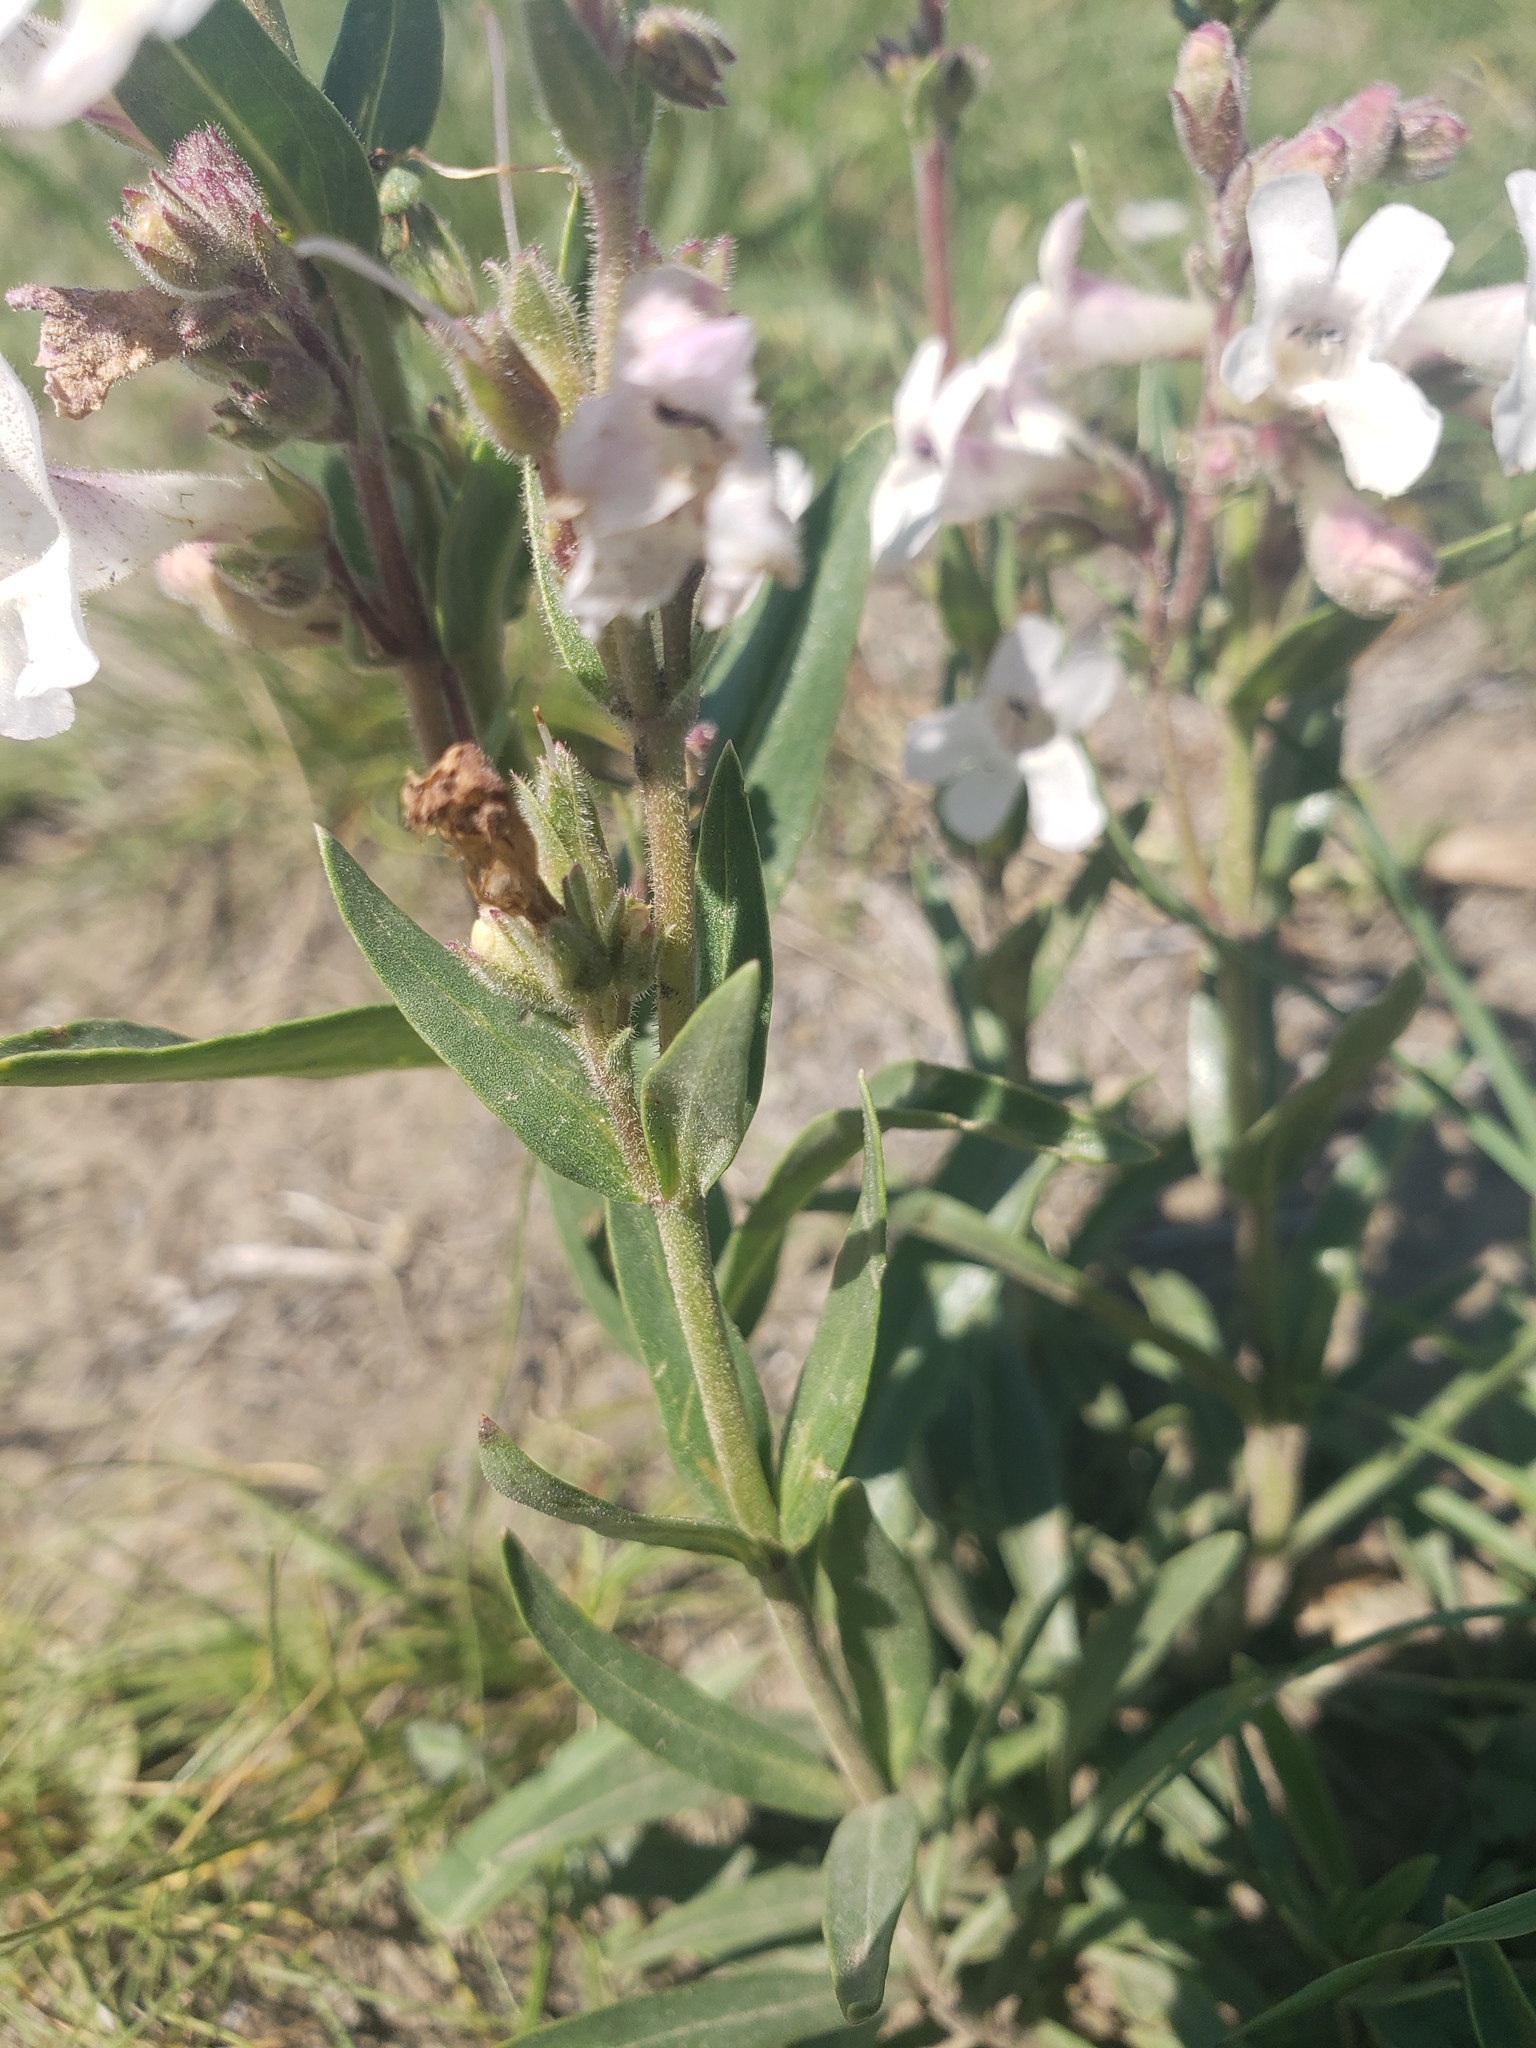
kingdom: Plantae
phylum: Tracheophyta
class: Magnoliopsida
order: Lamiales
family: Plantaginaceae
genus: Penstemon
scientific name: Penstemon albidus
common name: White beardtongue
